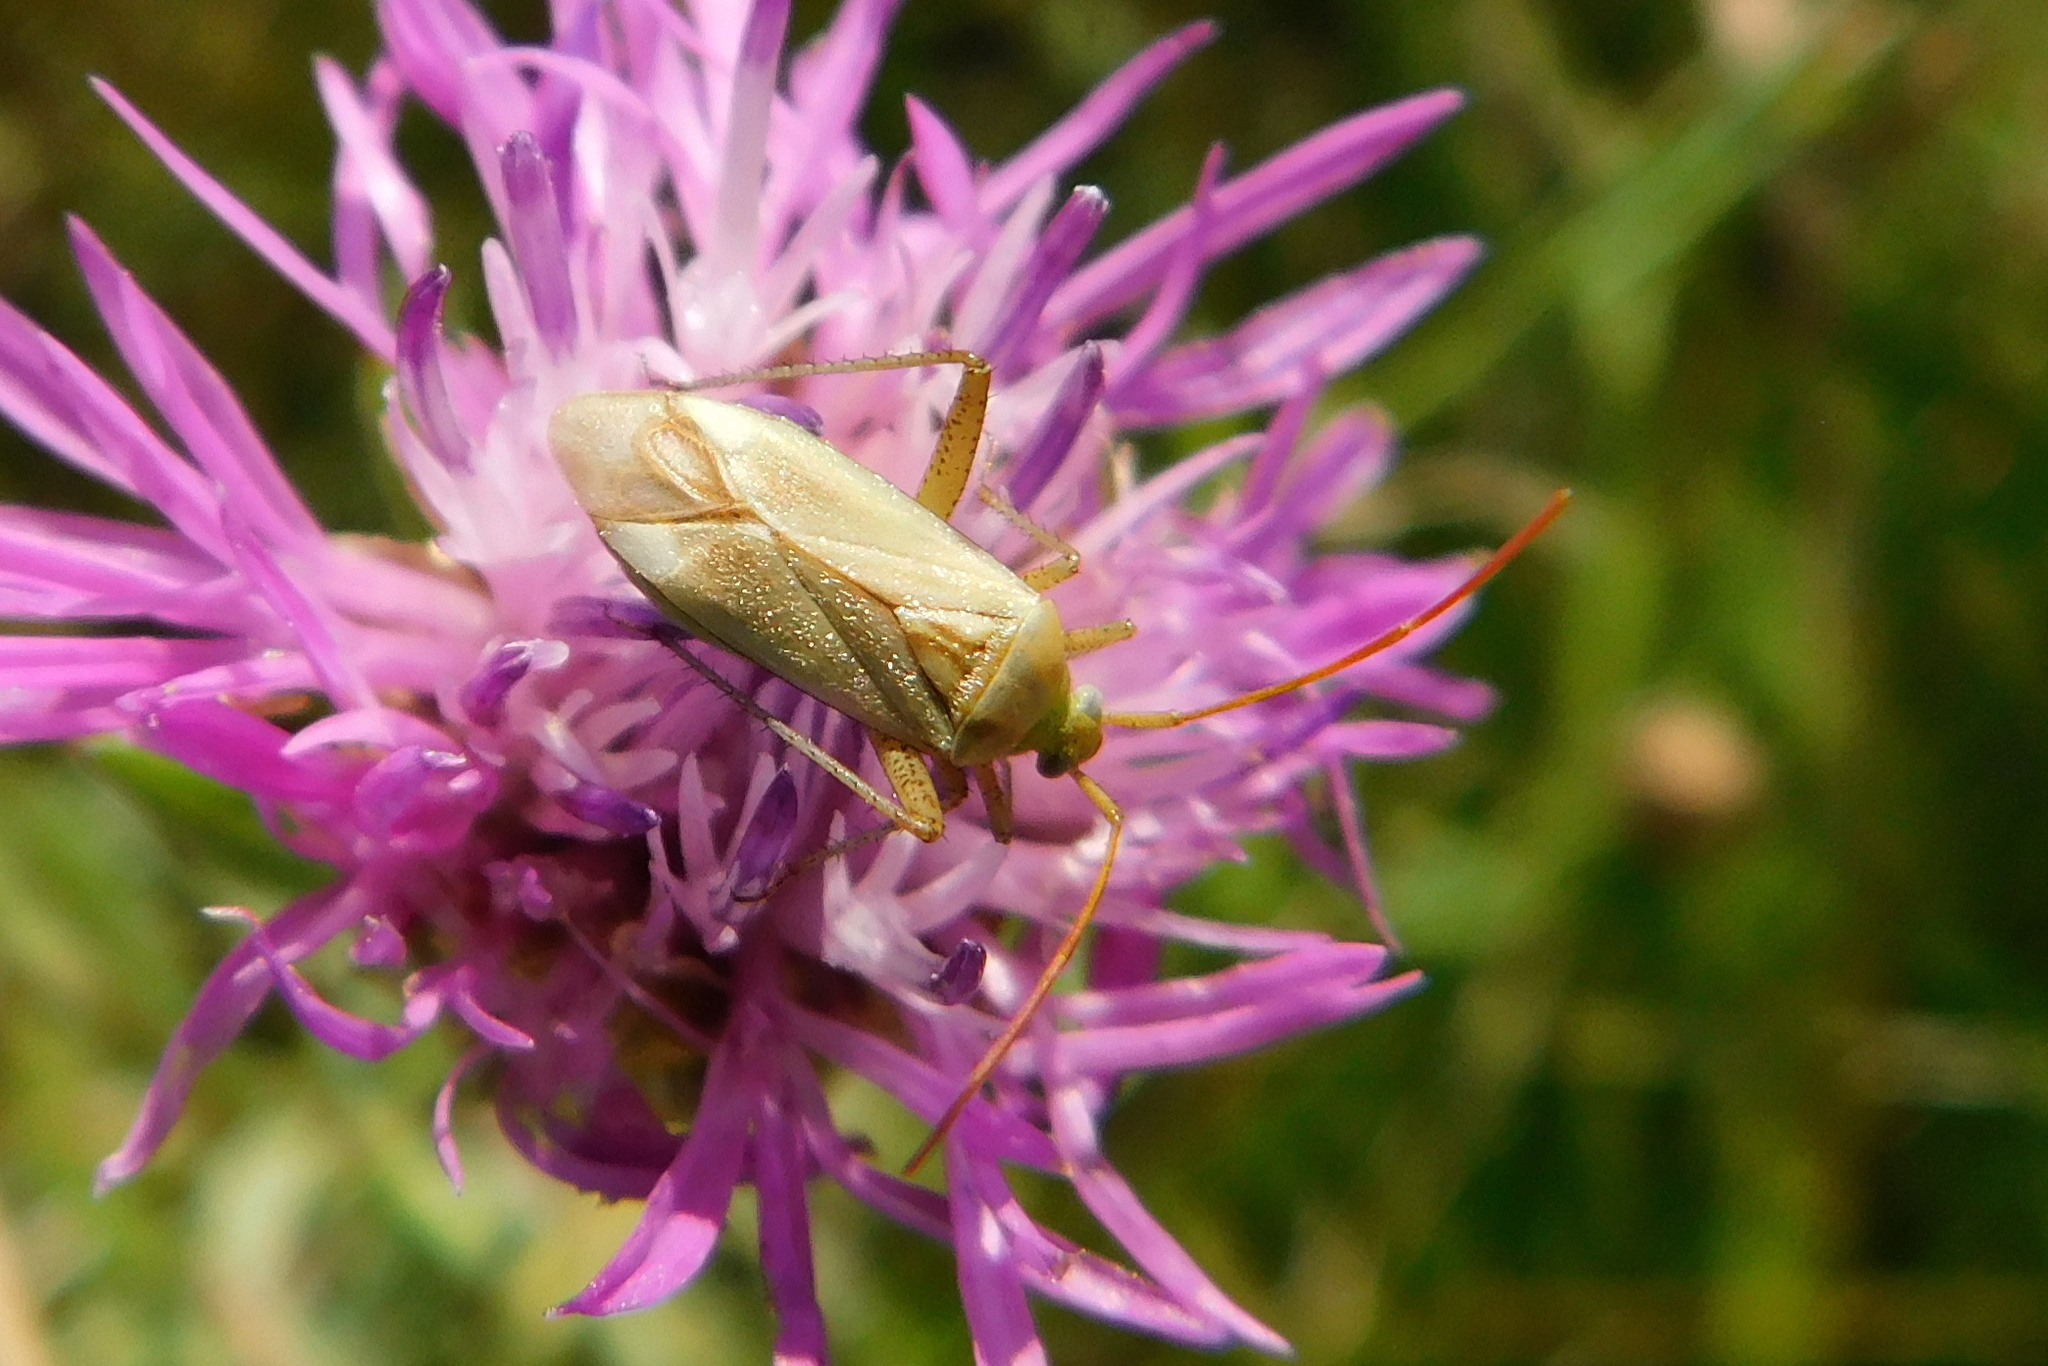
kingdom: Animalia
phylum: Arthropoda
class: Insecta
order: Hemiptera
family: Miridae
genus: Adelphocoris
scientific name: Adelphocoris lineolatus
